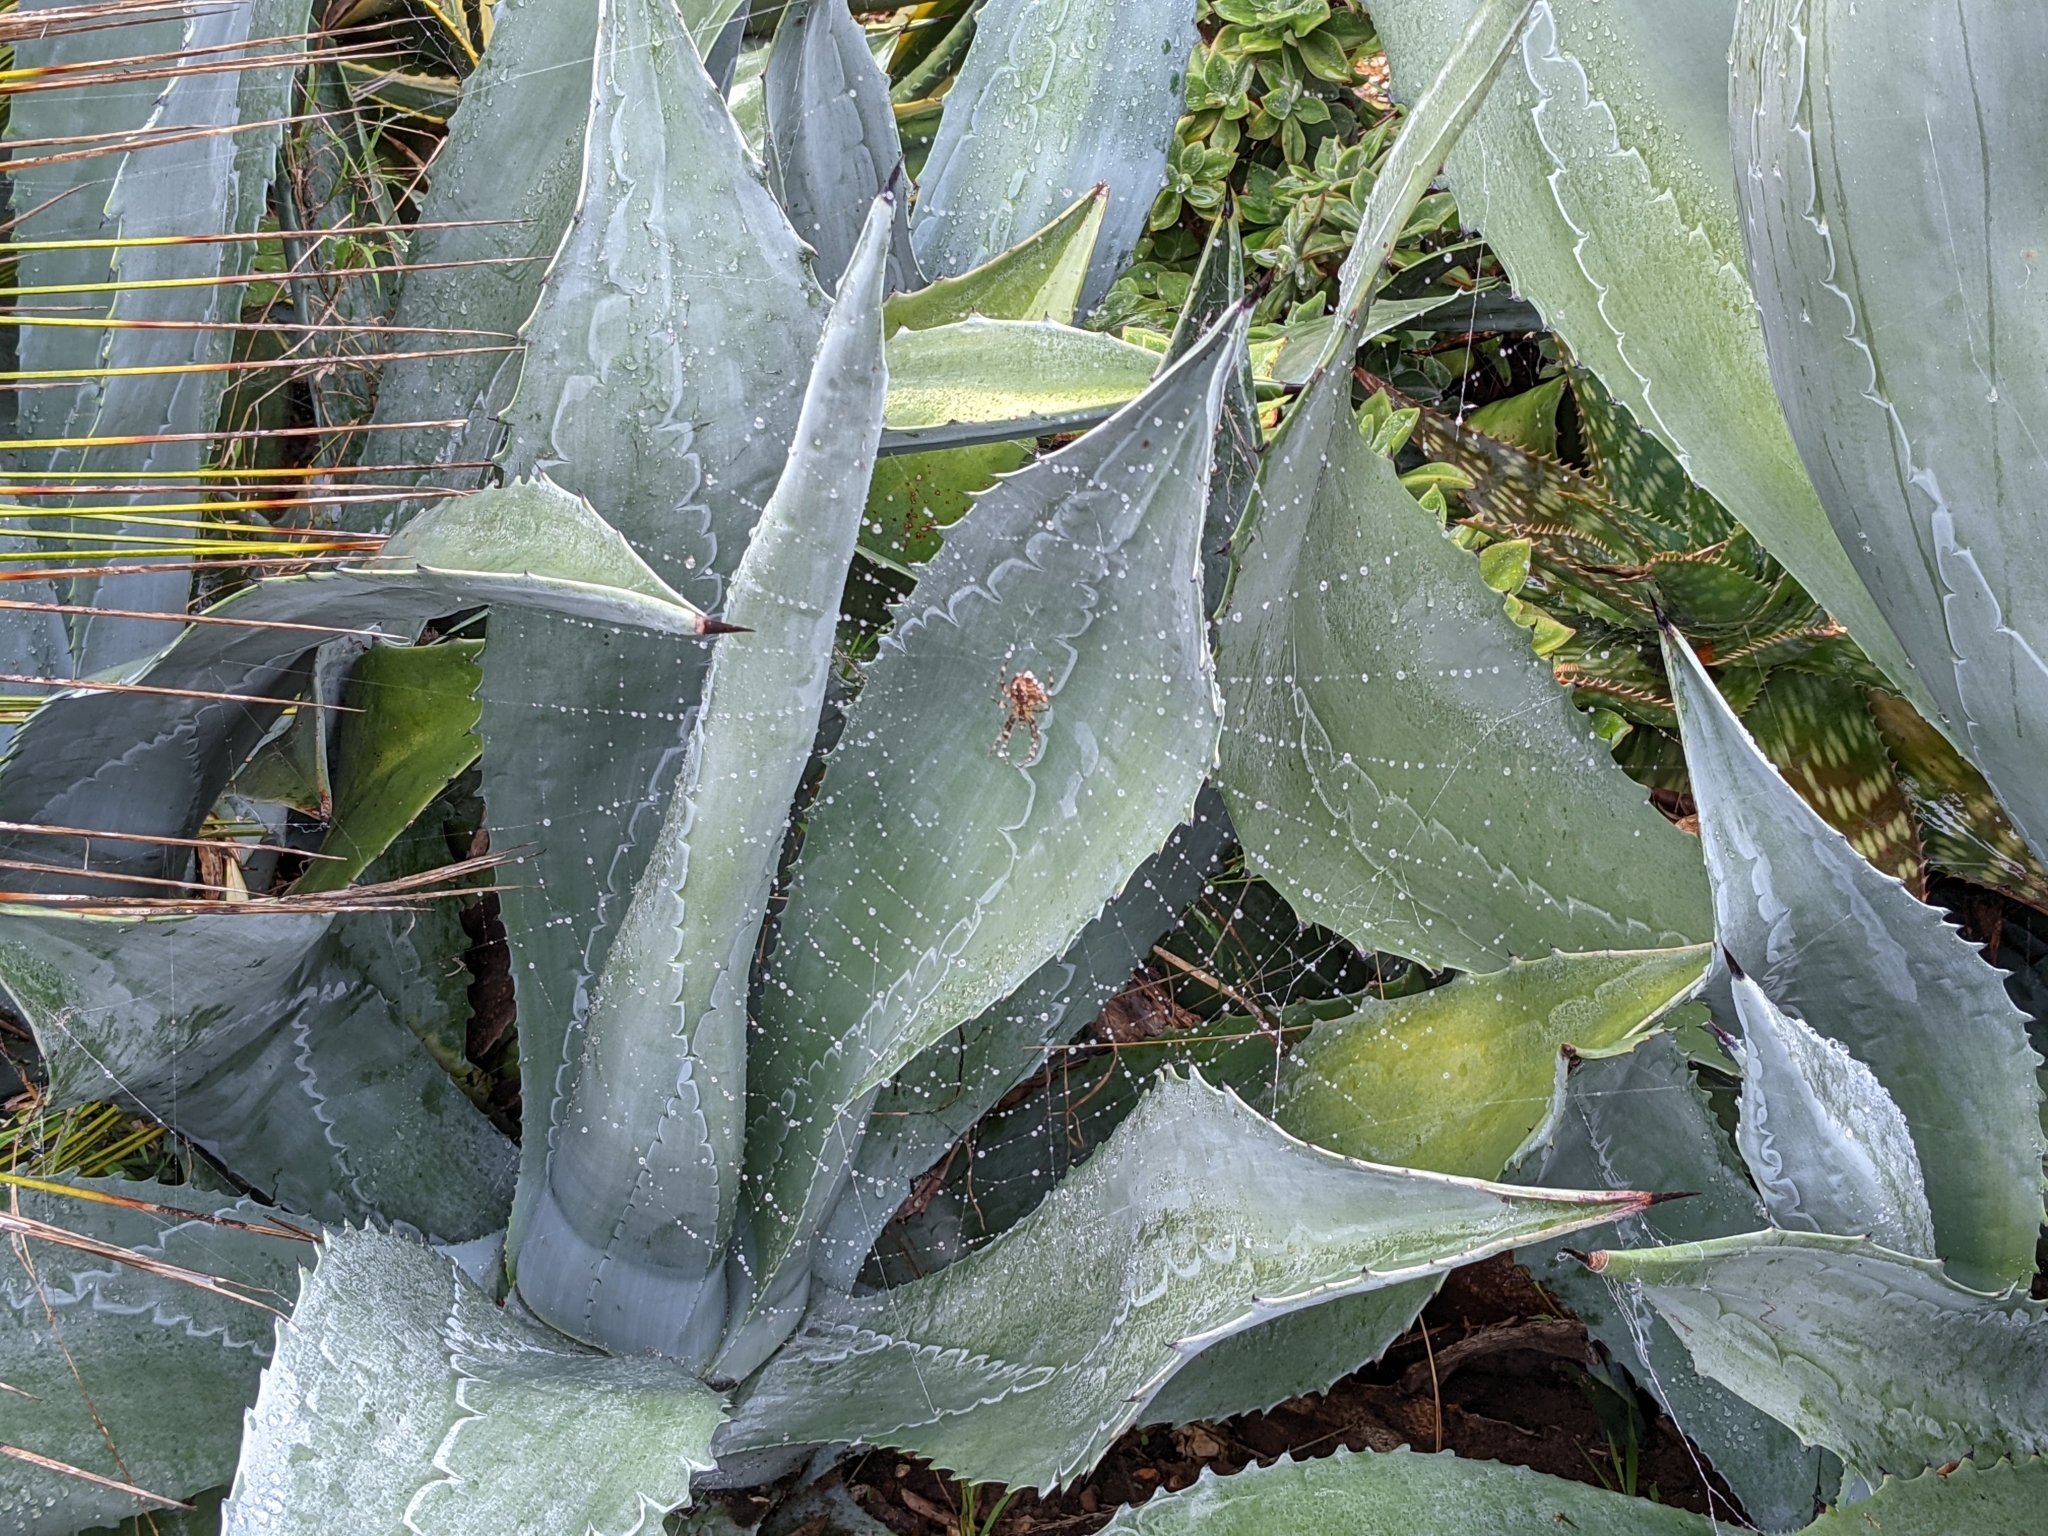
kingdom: Animalia
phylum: Arthropoda
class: Arachnida
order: Araneae
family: Araneidae
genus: Araneus
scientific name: Araneus diadematus
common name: Cross orbweaver
